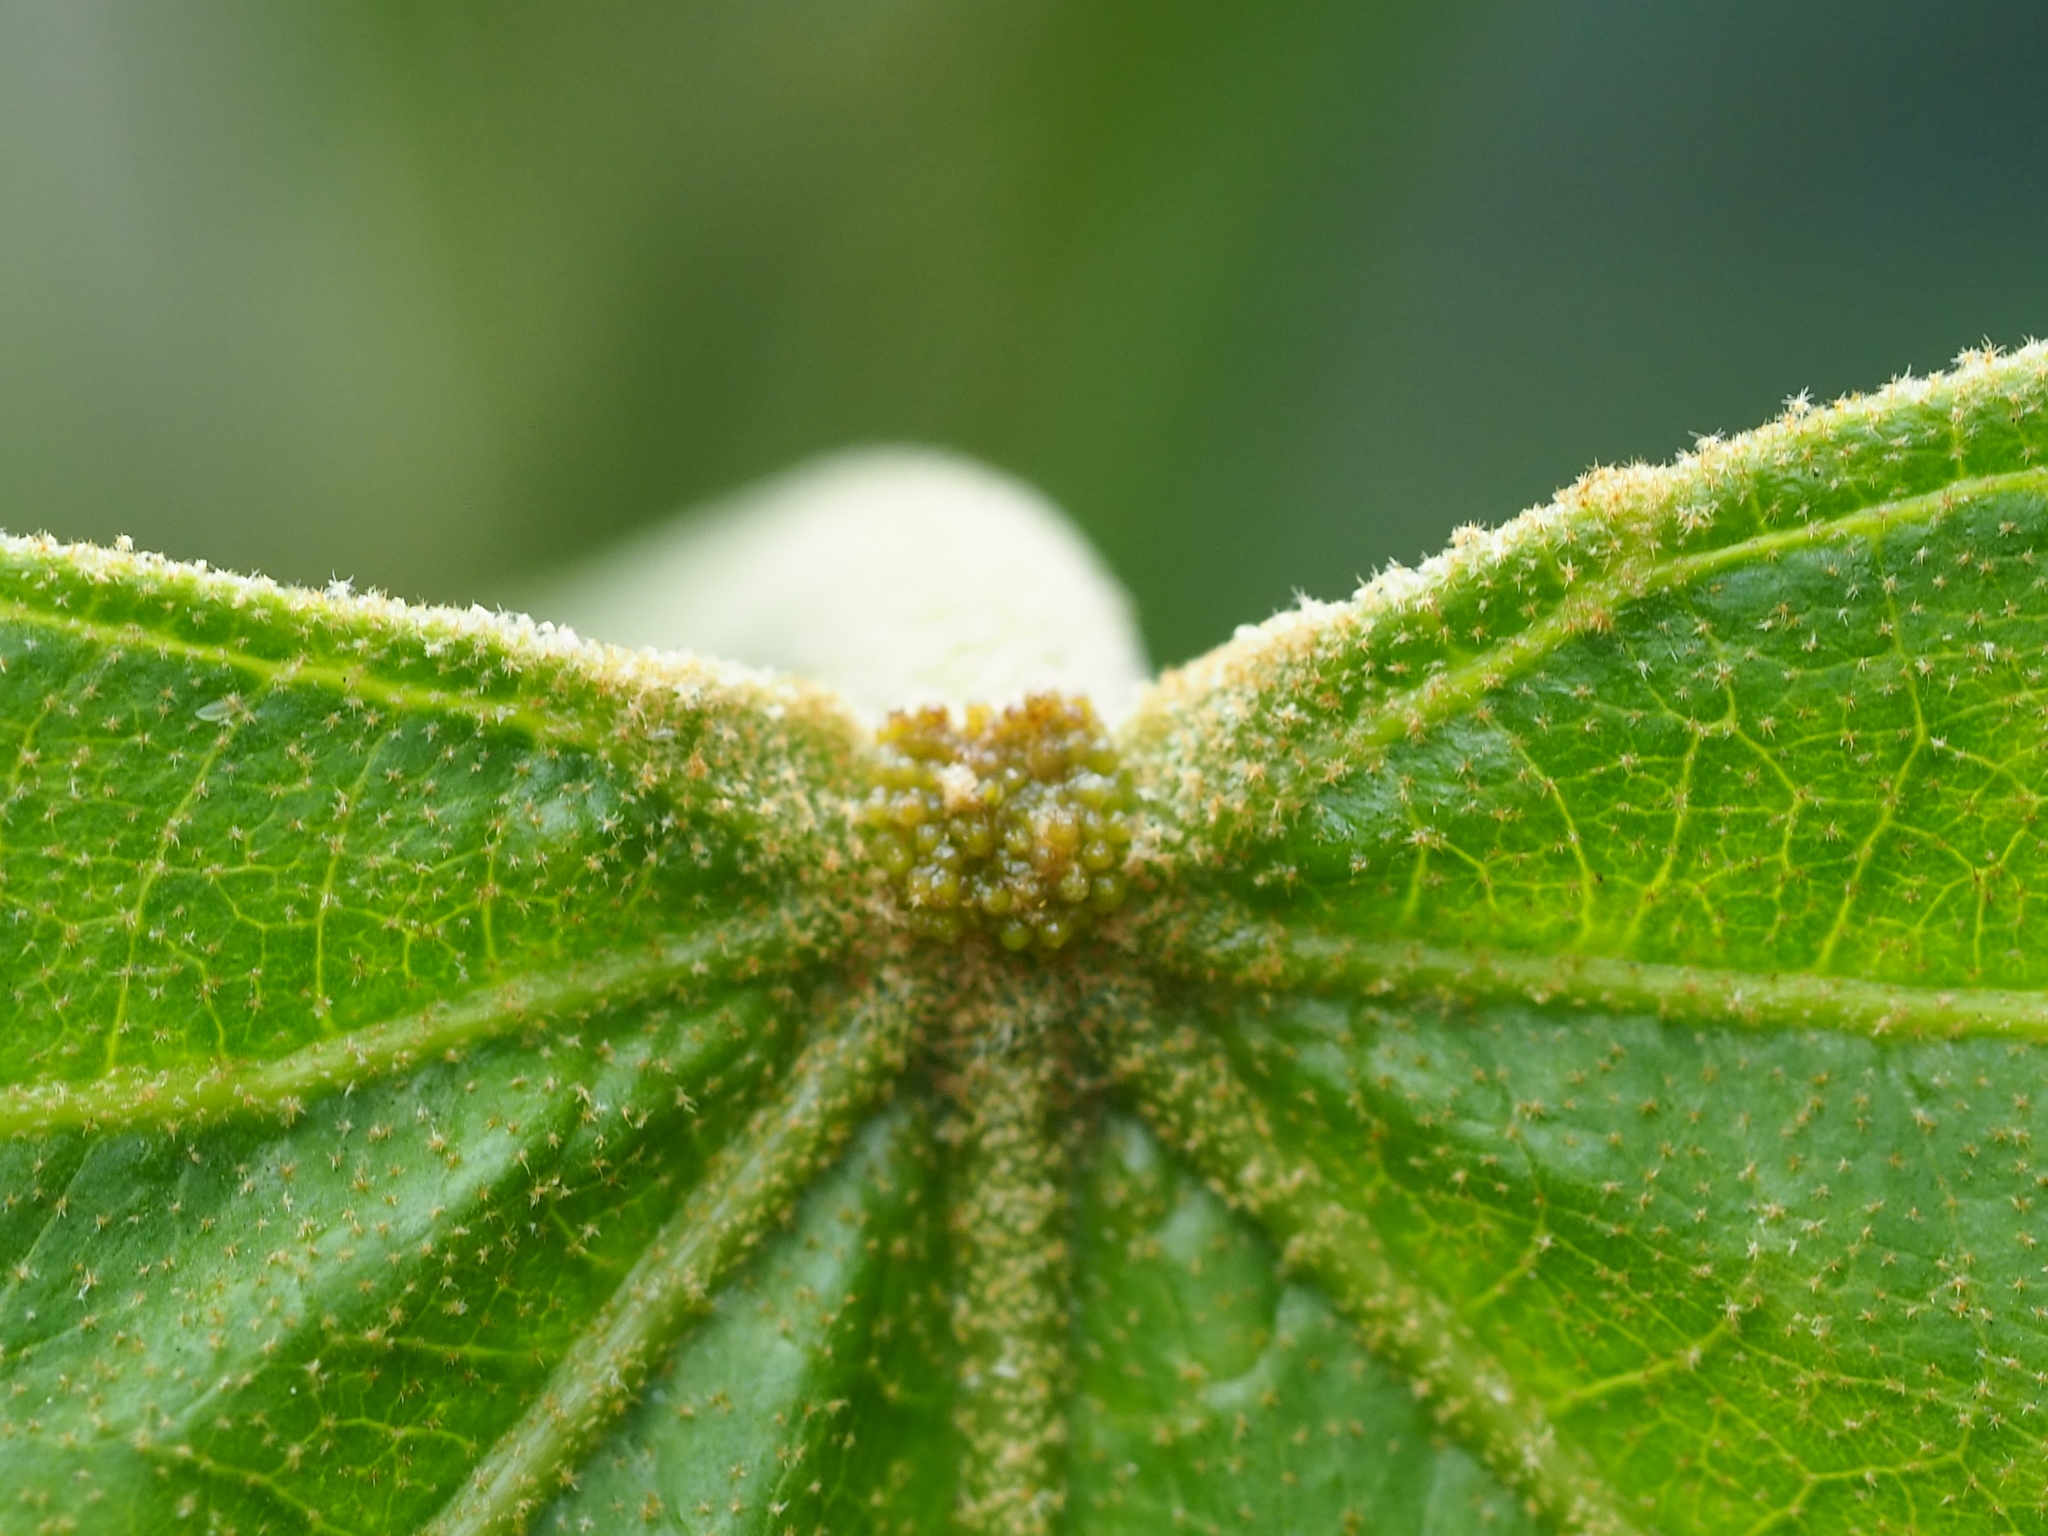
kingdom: Plantae
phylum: Tracheophyta
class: Magnoliopsida
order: Malpighiales
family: Euphorbiaceae
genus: Melanolepis
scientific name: Melanolepis multiglandulosa
